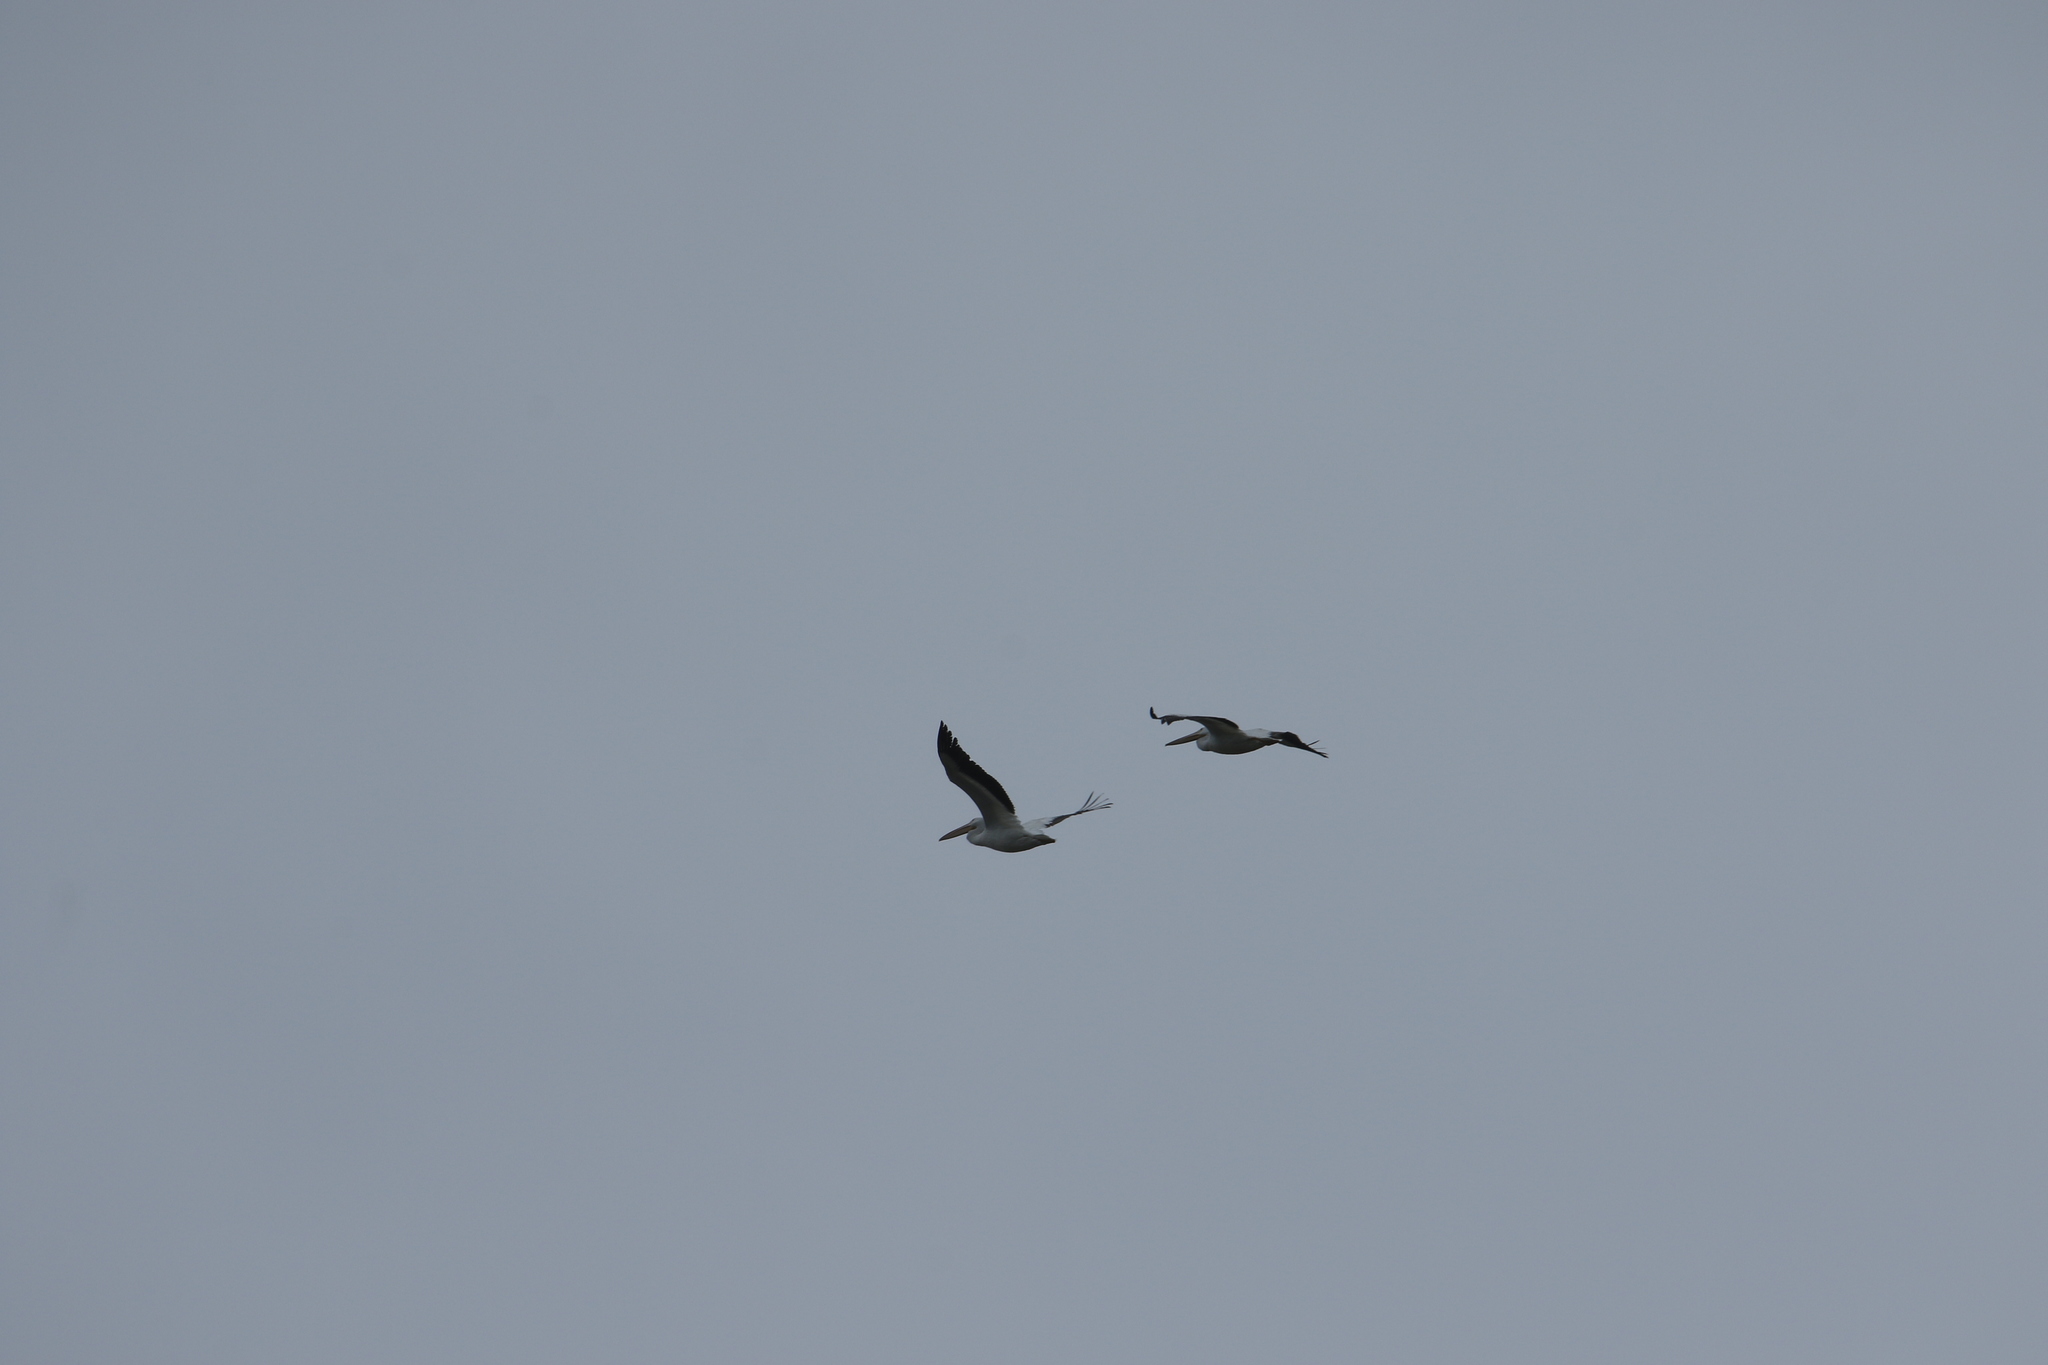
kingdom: Animalia
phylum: Chordata
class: Aves
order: Pelecaniformes
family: Pelecanidae
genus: Pelecanus
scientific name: Pelecanus erythrorhynchos
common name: American white pelican
